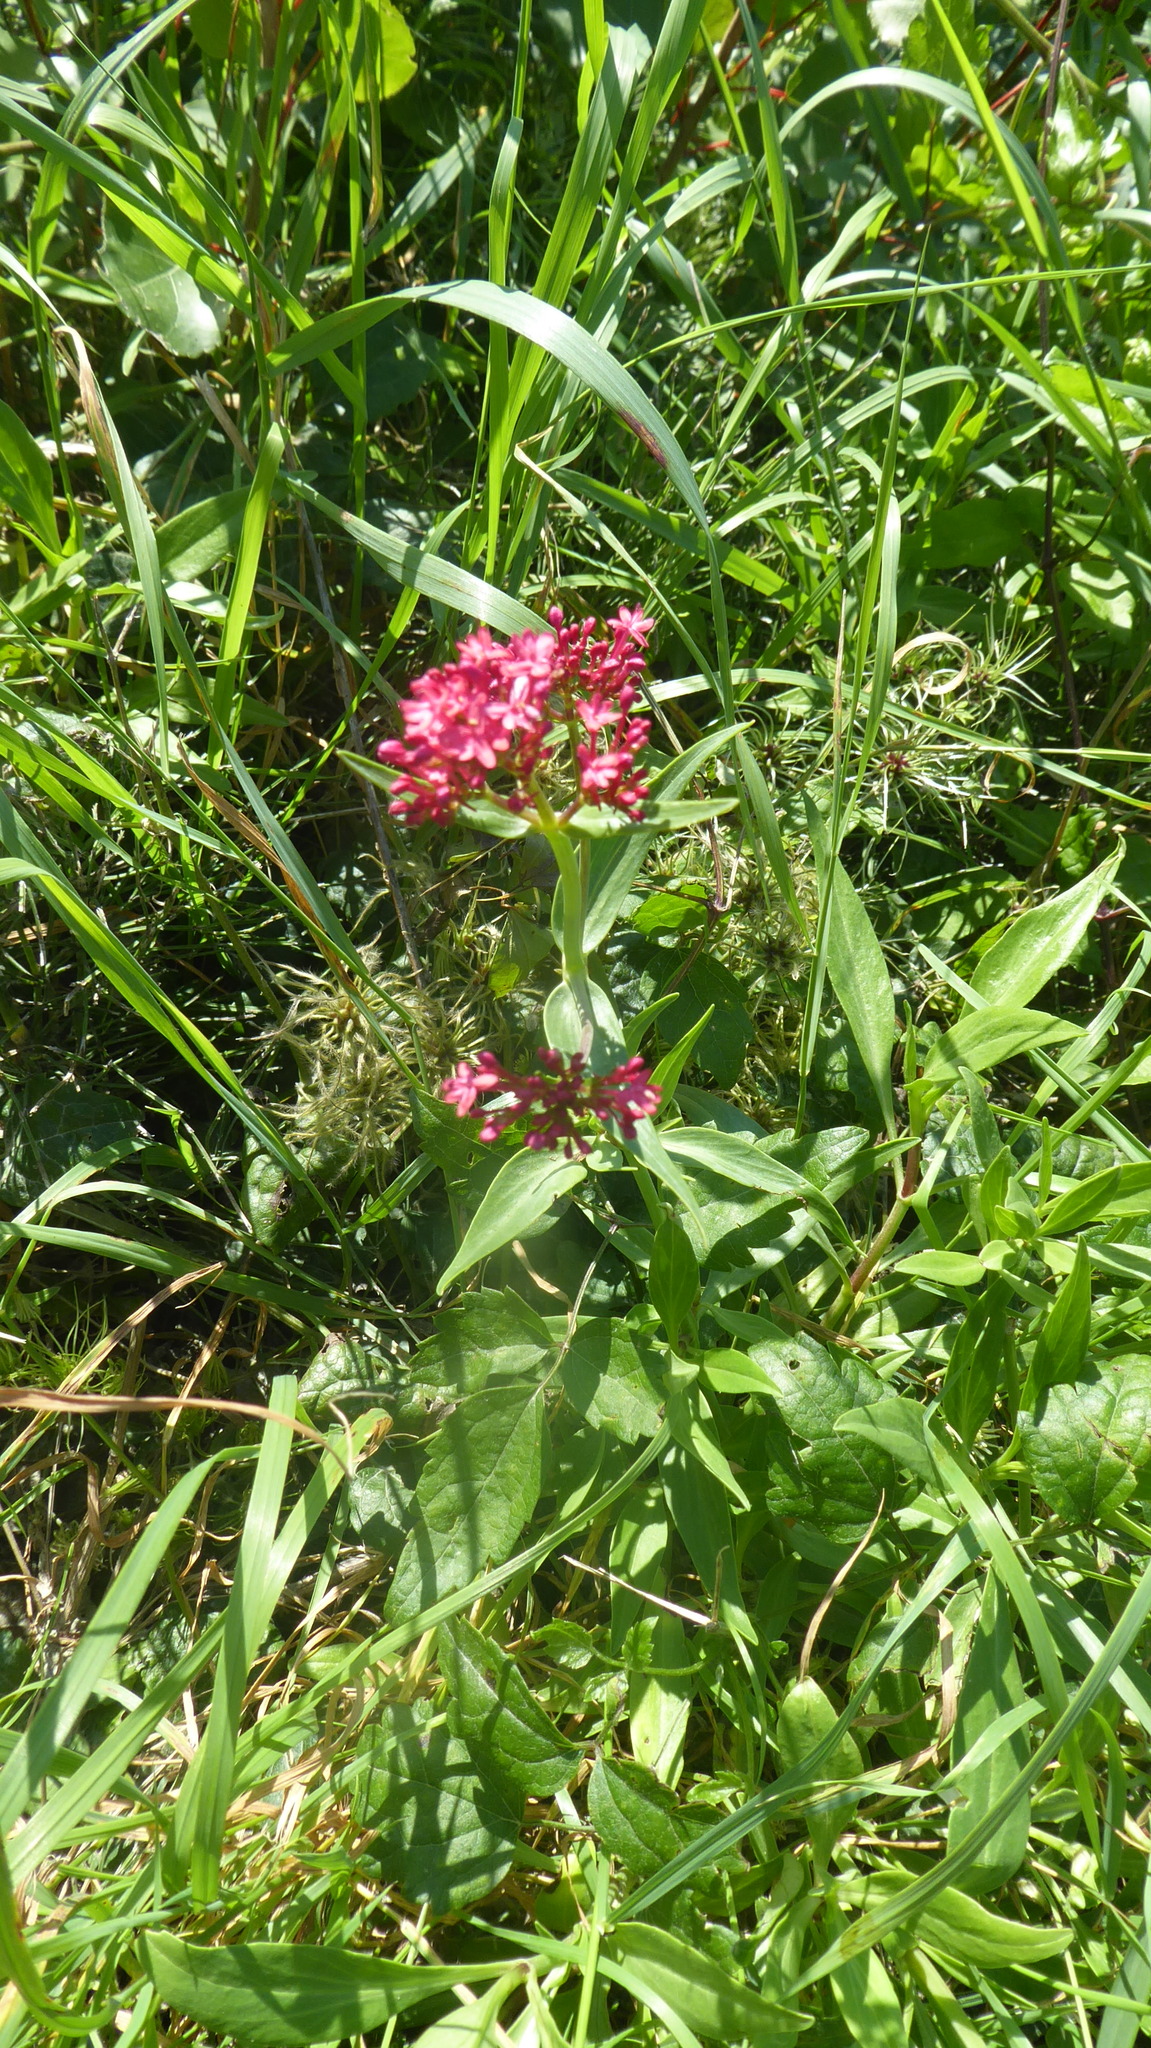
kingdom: Plantae
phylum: Tracheophyta
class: Magnoliopsida
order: Dipsacales
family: Caprifoliaceae
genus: Centranthus
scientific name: Centranthus ruber
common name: Red valerian
